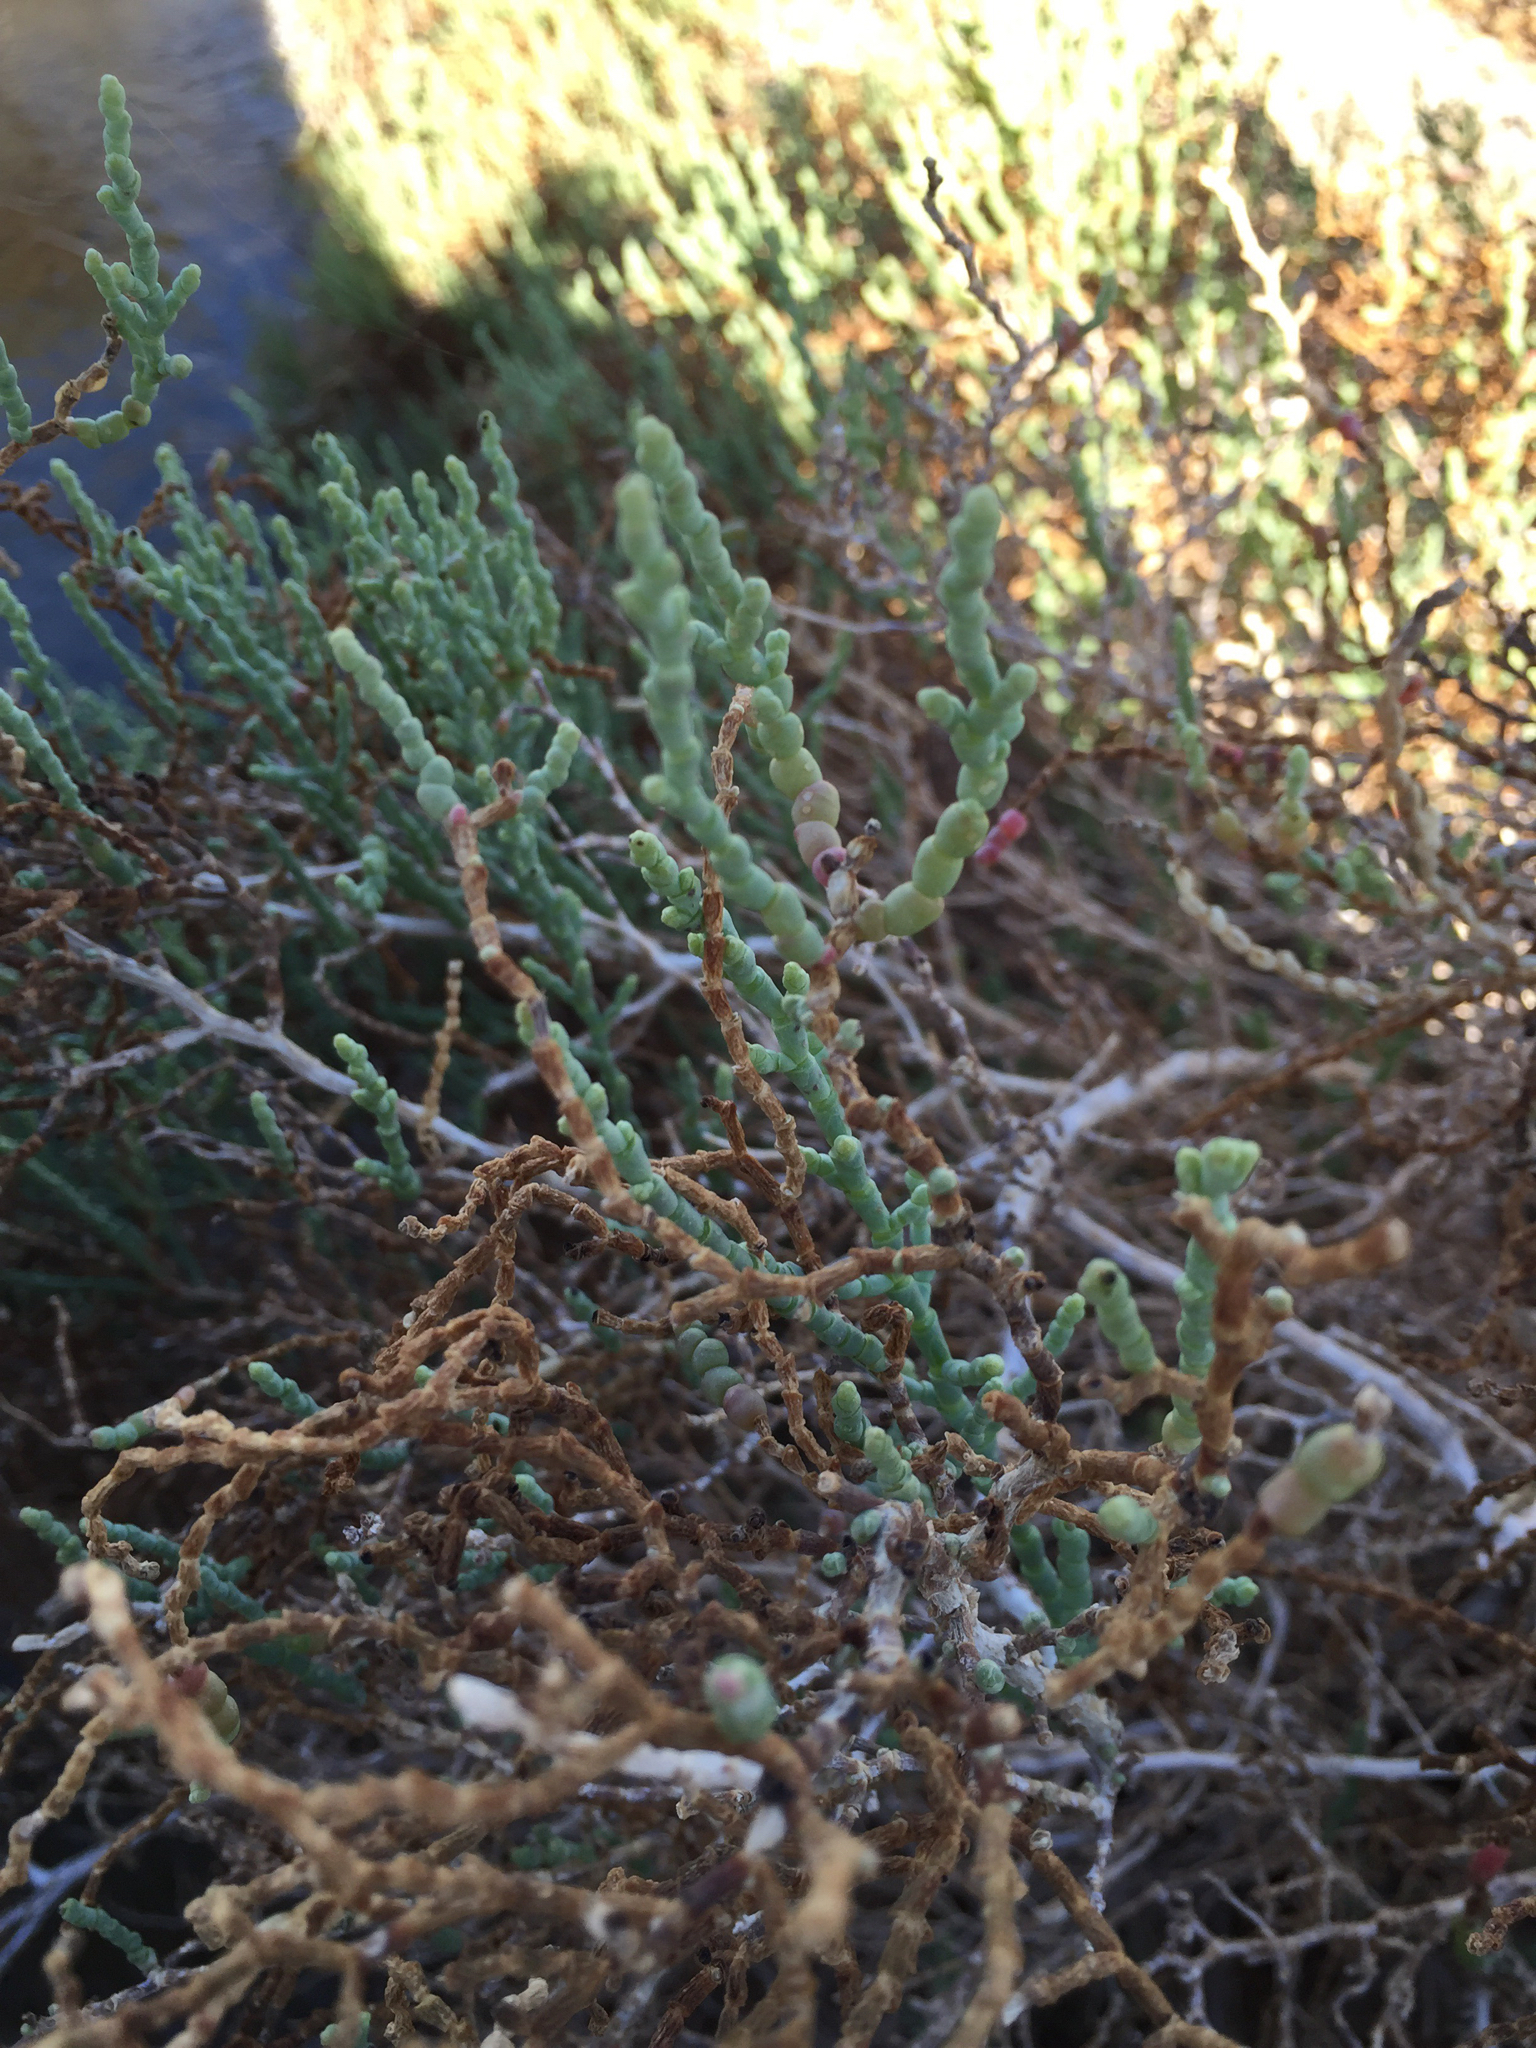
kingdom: Plantae
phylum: Tracheophyta
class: Magnoliopsida
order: Caryophyllales
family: Amaranthaceae
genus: Allenrolfea
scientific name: Allenrolfea occidentalis
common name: Iodine-bush
